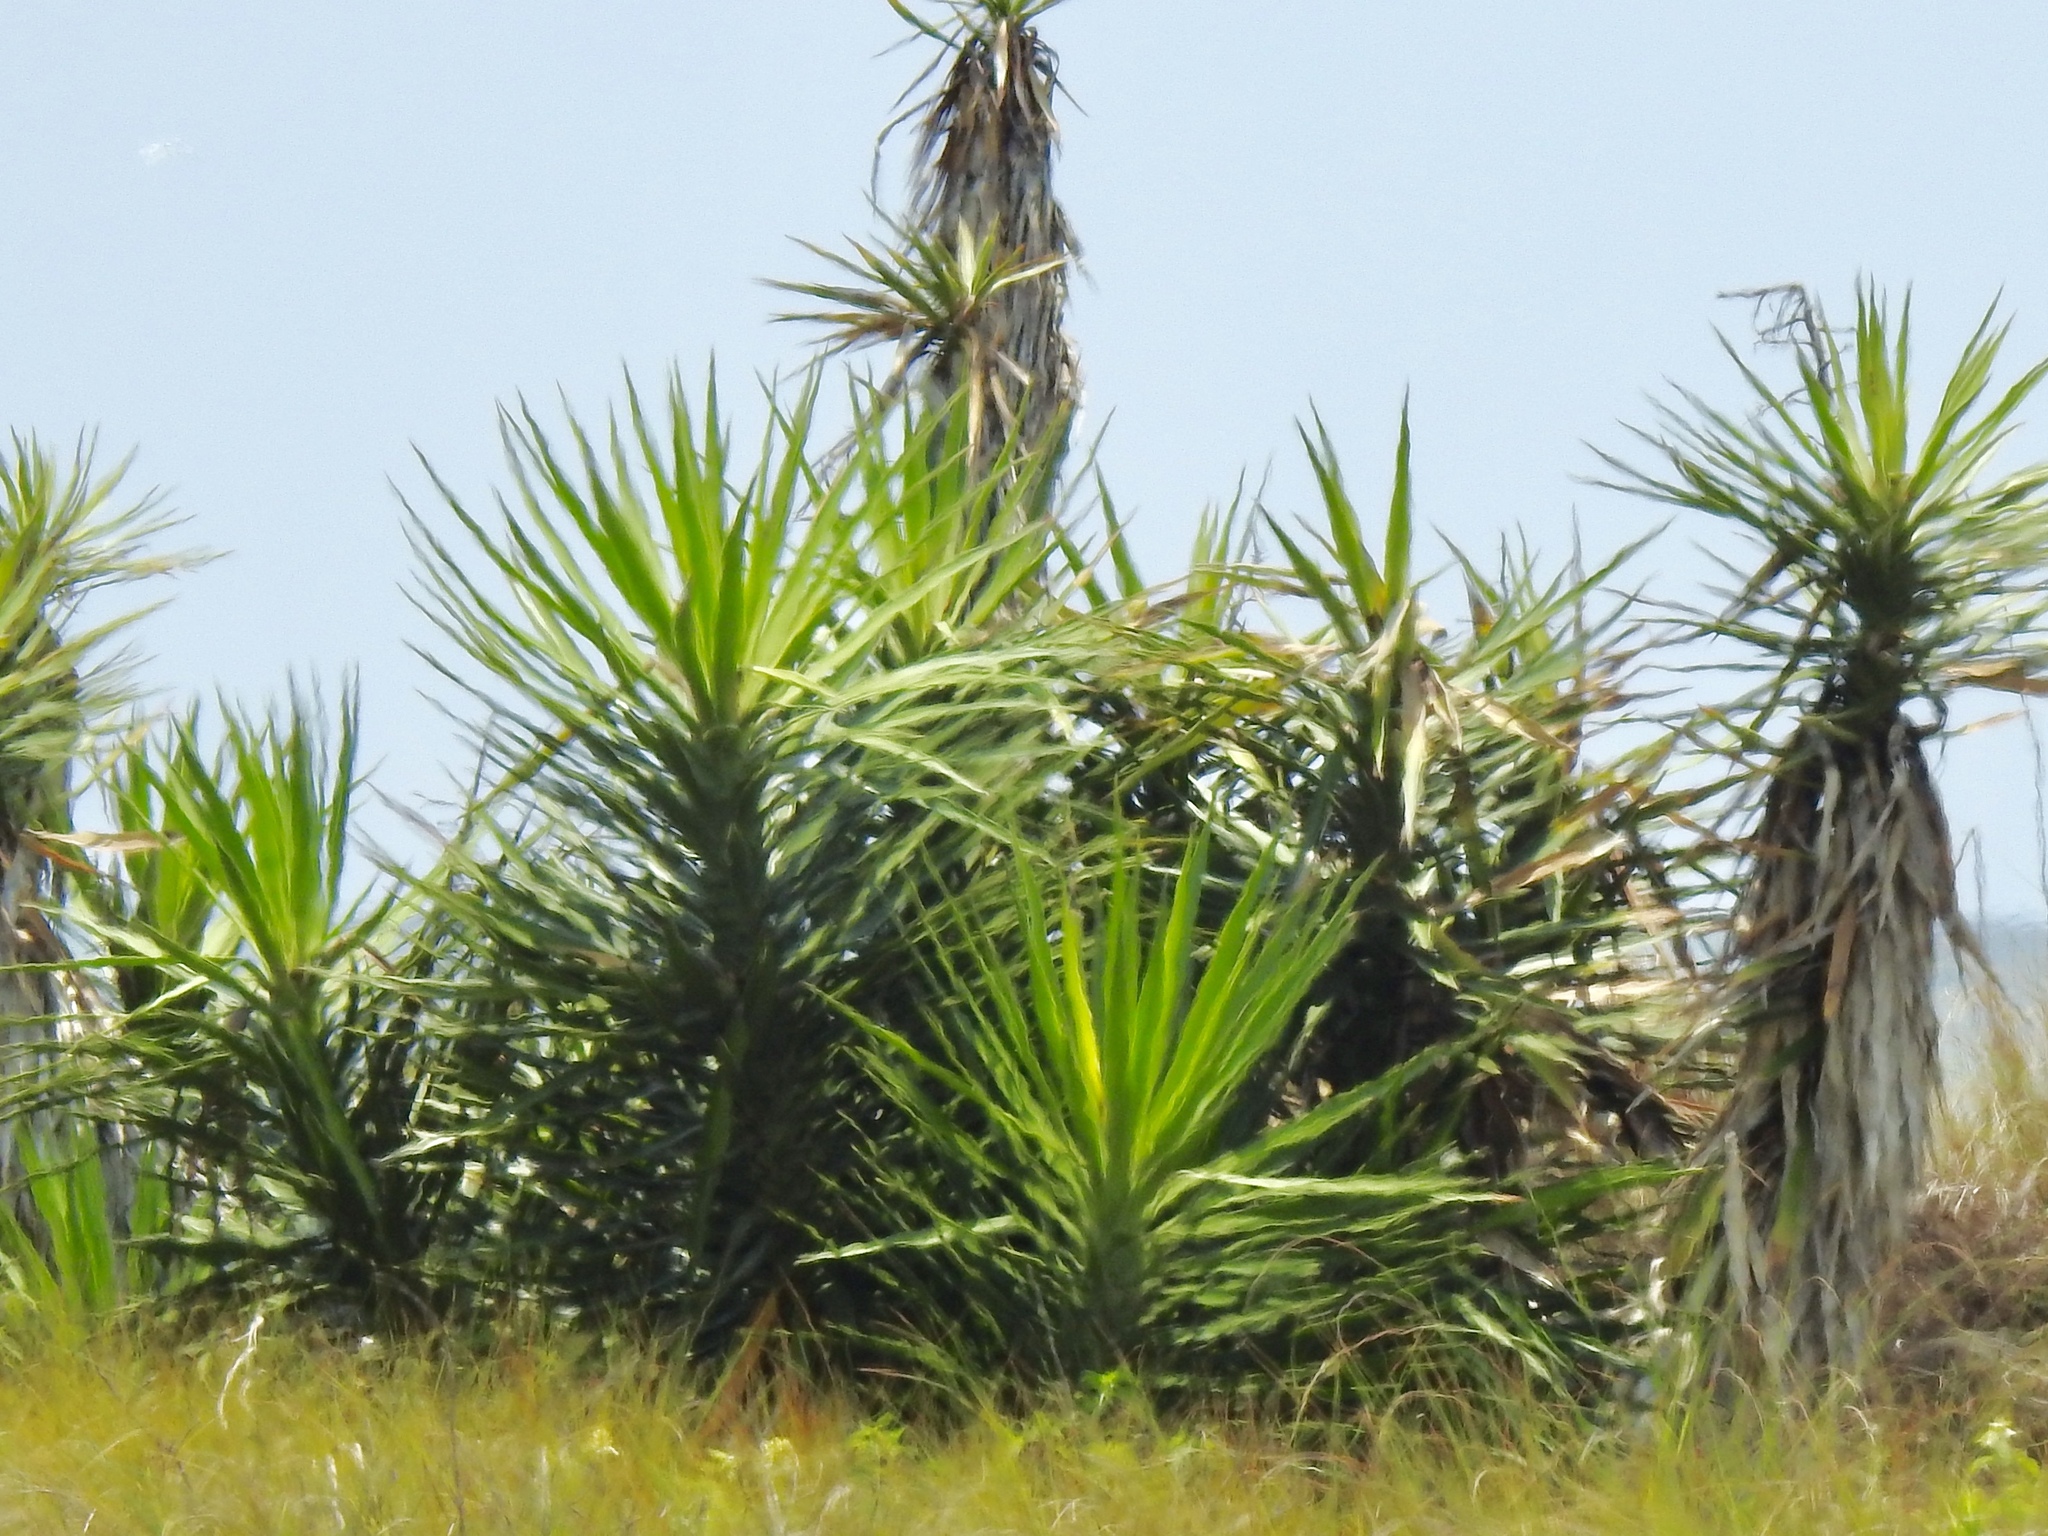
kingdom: Plantae
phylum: Tracheophyta
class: Liliopsida
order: Asparagales
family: Asparagaceae
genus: Yucca
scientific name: Yucca aloifolia
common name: Aloe yucca
